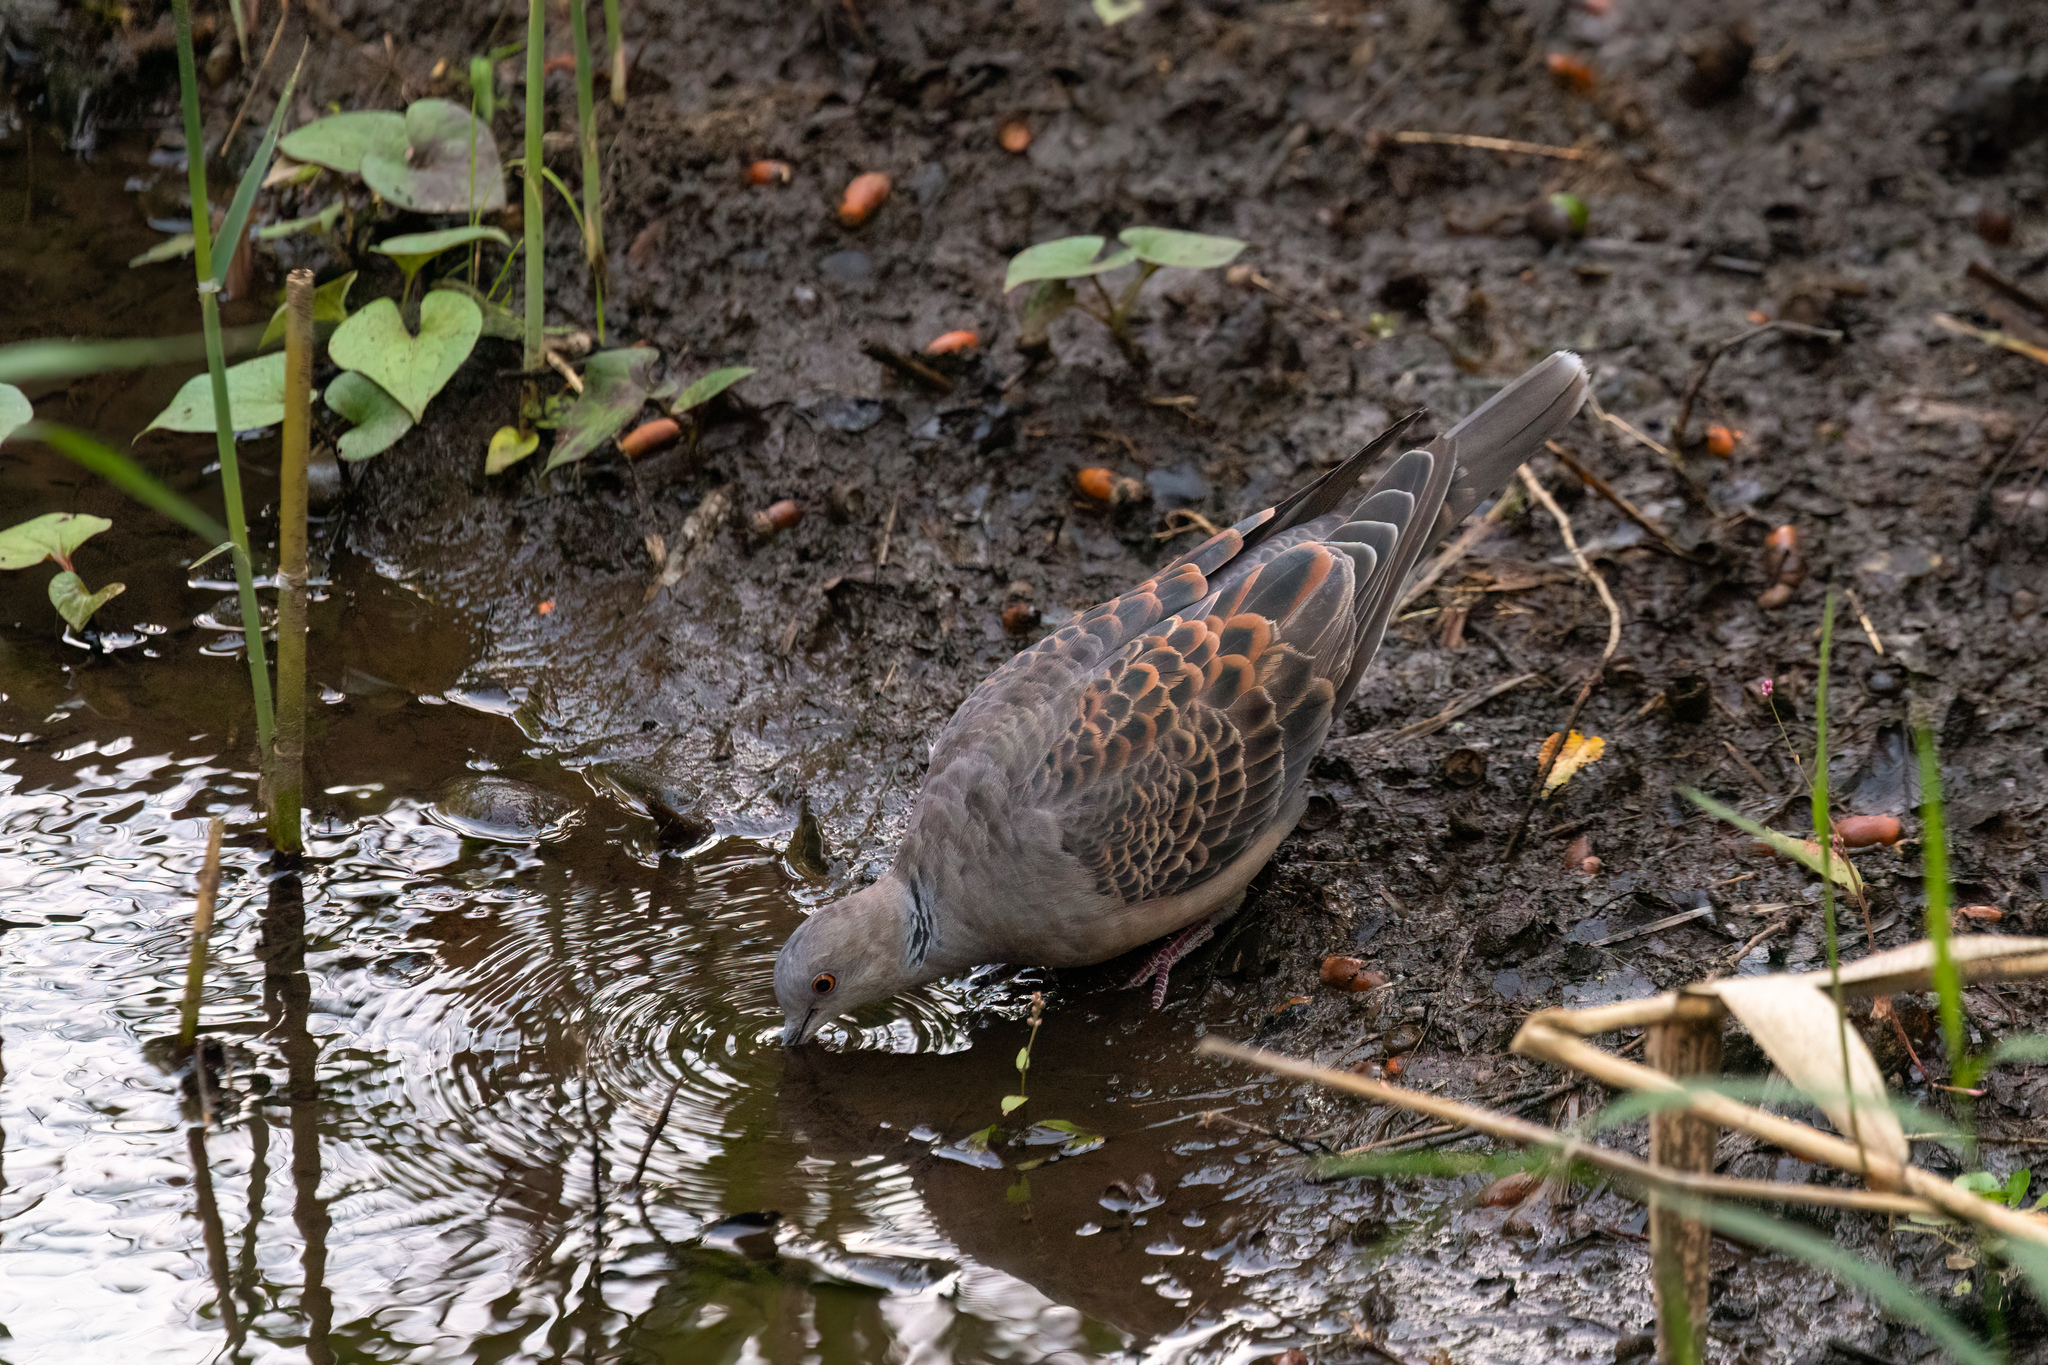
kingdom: Animalia
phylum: Chordata
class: Aves
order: Columbiformes
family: Columbidae
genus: Streptopelia
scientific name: Streptopelia orientalis
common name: Oriental turtle dove
